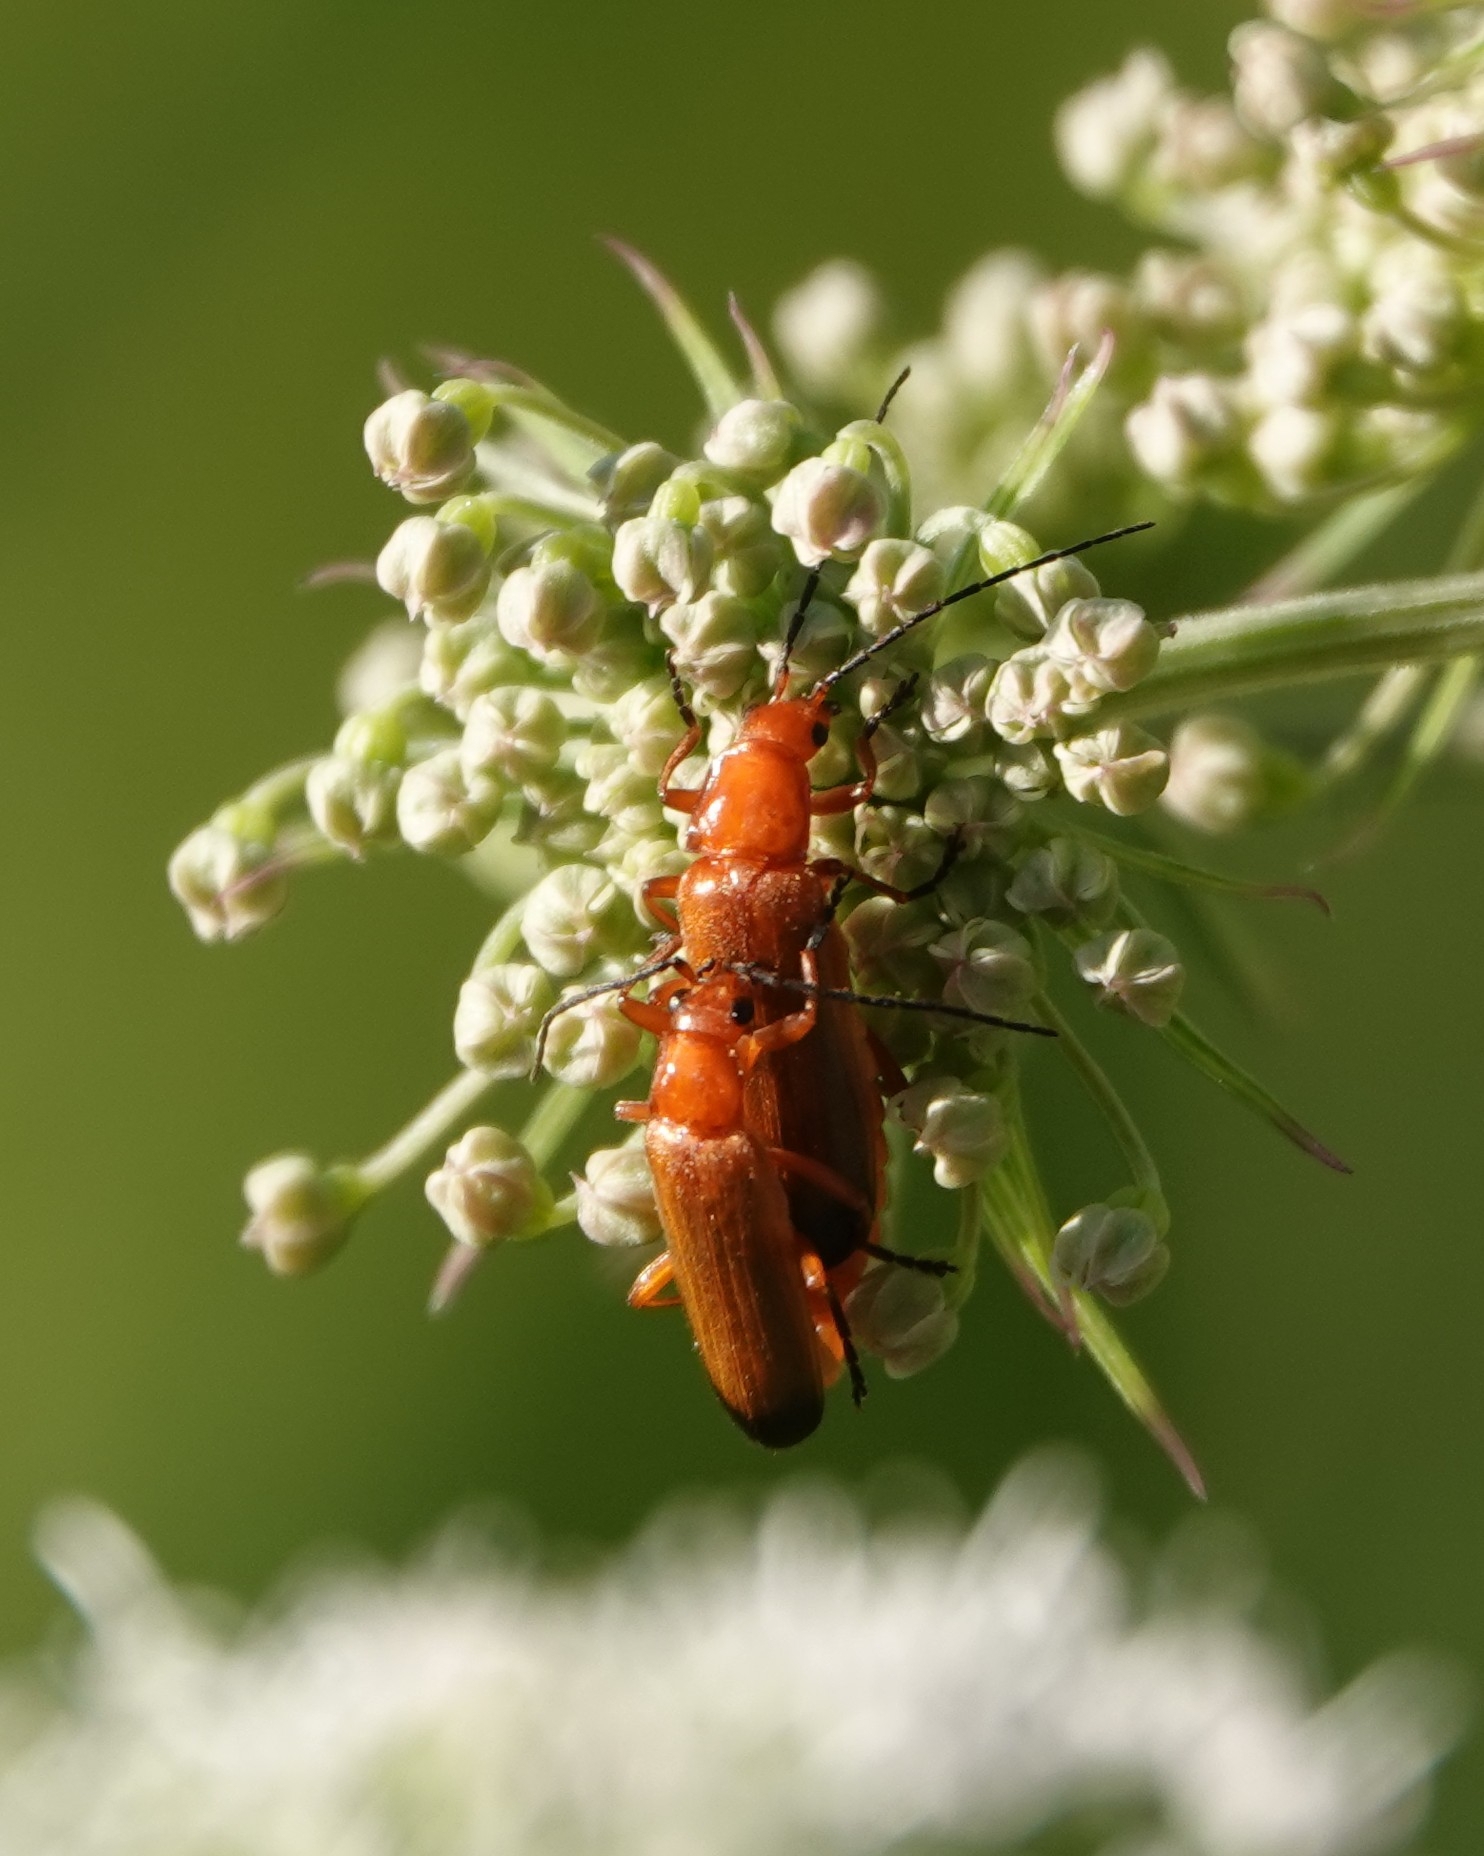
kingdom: Animalia
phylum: Arthropoda
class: Insecta
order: Coleoptera
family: Cantharidae
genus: Rhagonycha
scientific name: Rhagonycha fulva
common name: Common red soldier beetle
